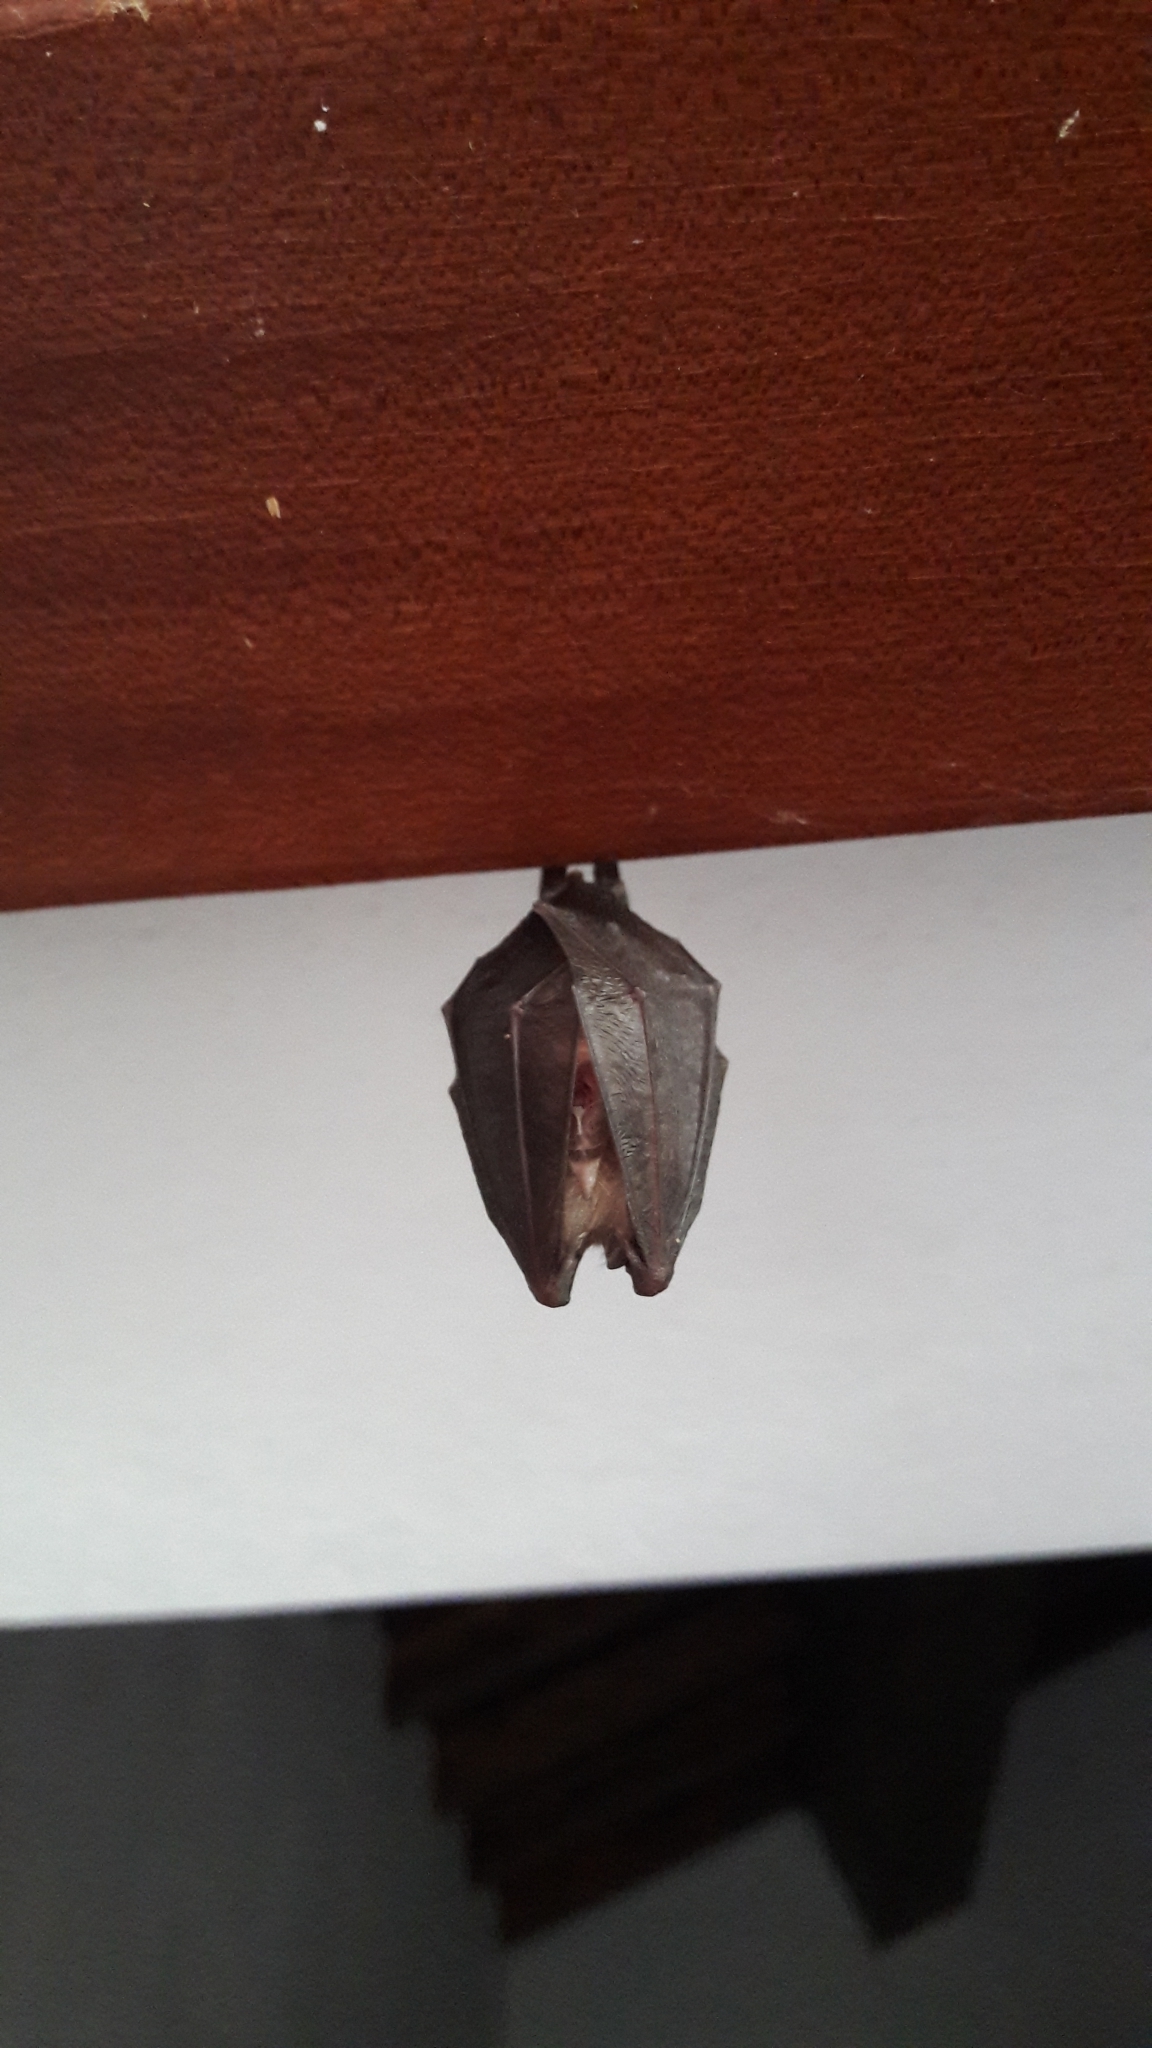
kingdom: Animalia
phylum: Chordata
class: Mammalia
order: Chiroptera
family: Rhinolophidae
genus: Rhinolophus
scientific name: Rhinolophus hipposideros
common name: Lesser horseshoe bat
